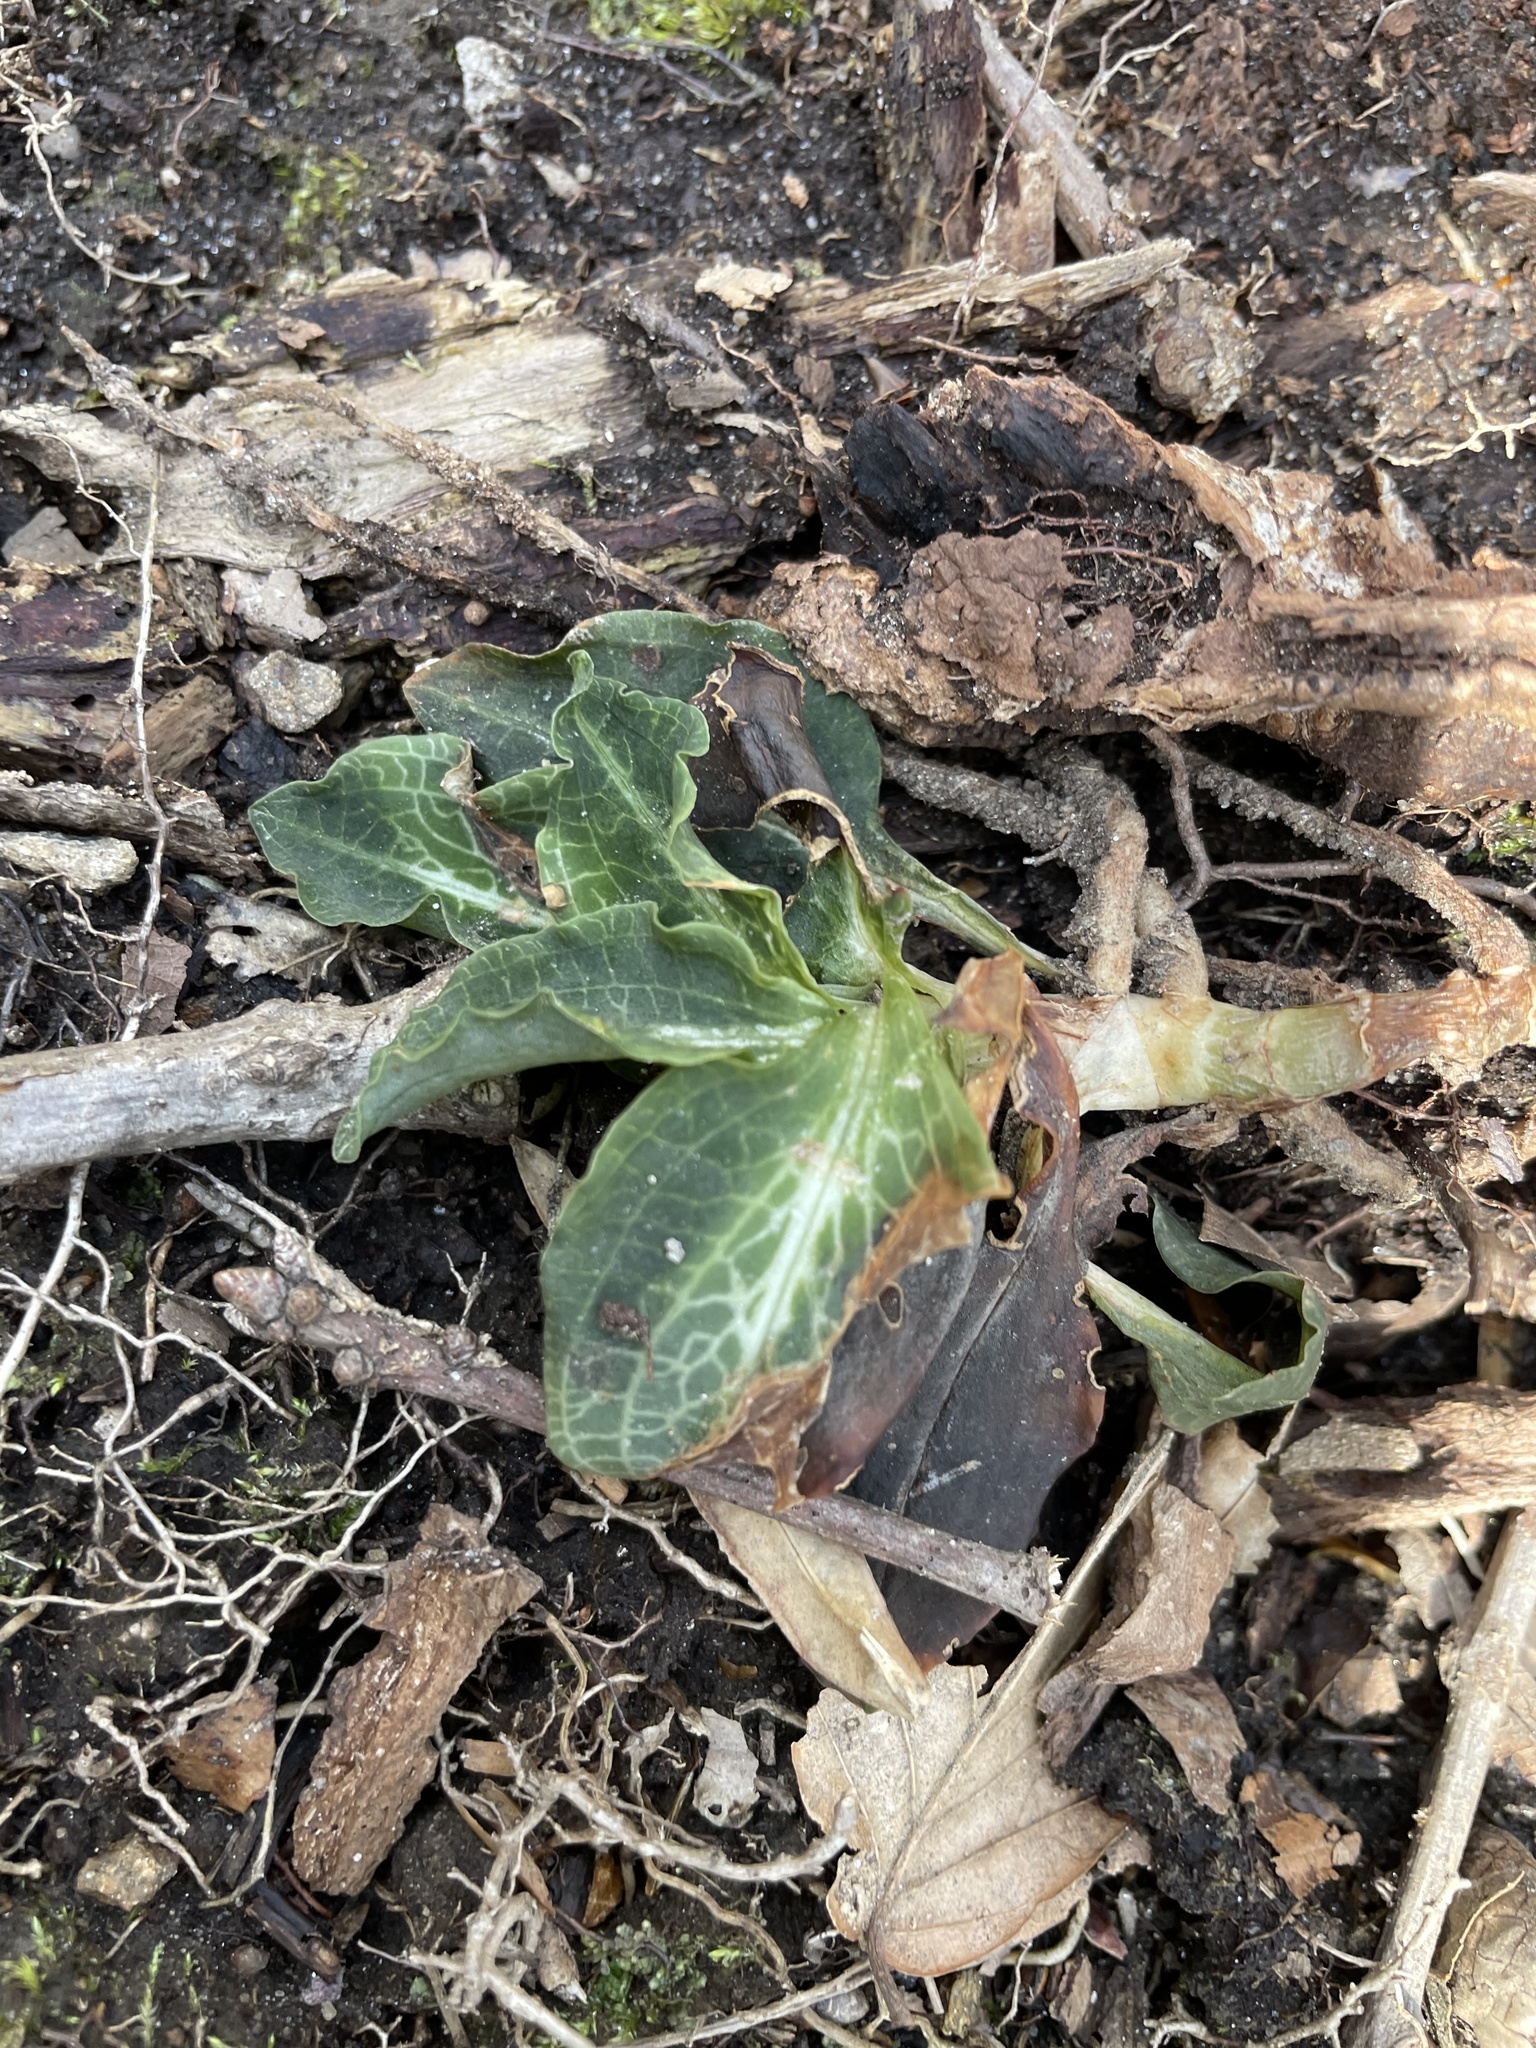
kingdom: Plantae
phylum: Tracheophyta
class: Liliopsida
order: Asparagales
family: Orchidaceae
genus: Goodyera
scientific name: Goodyera pubescens
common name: Downy rattlesnake-plantain
